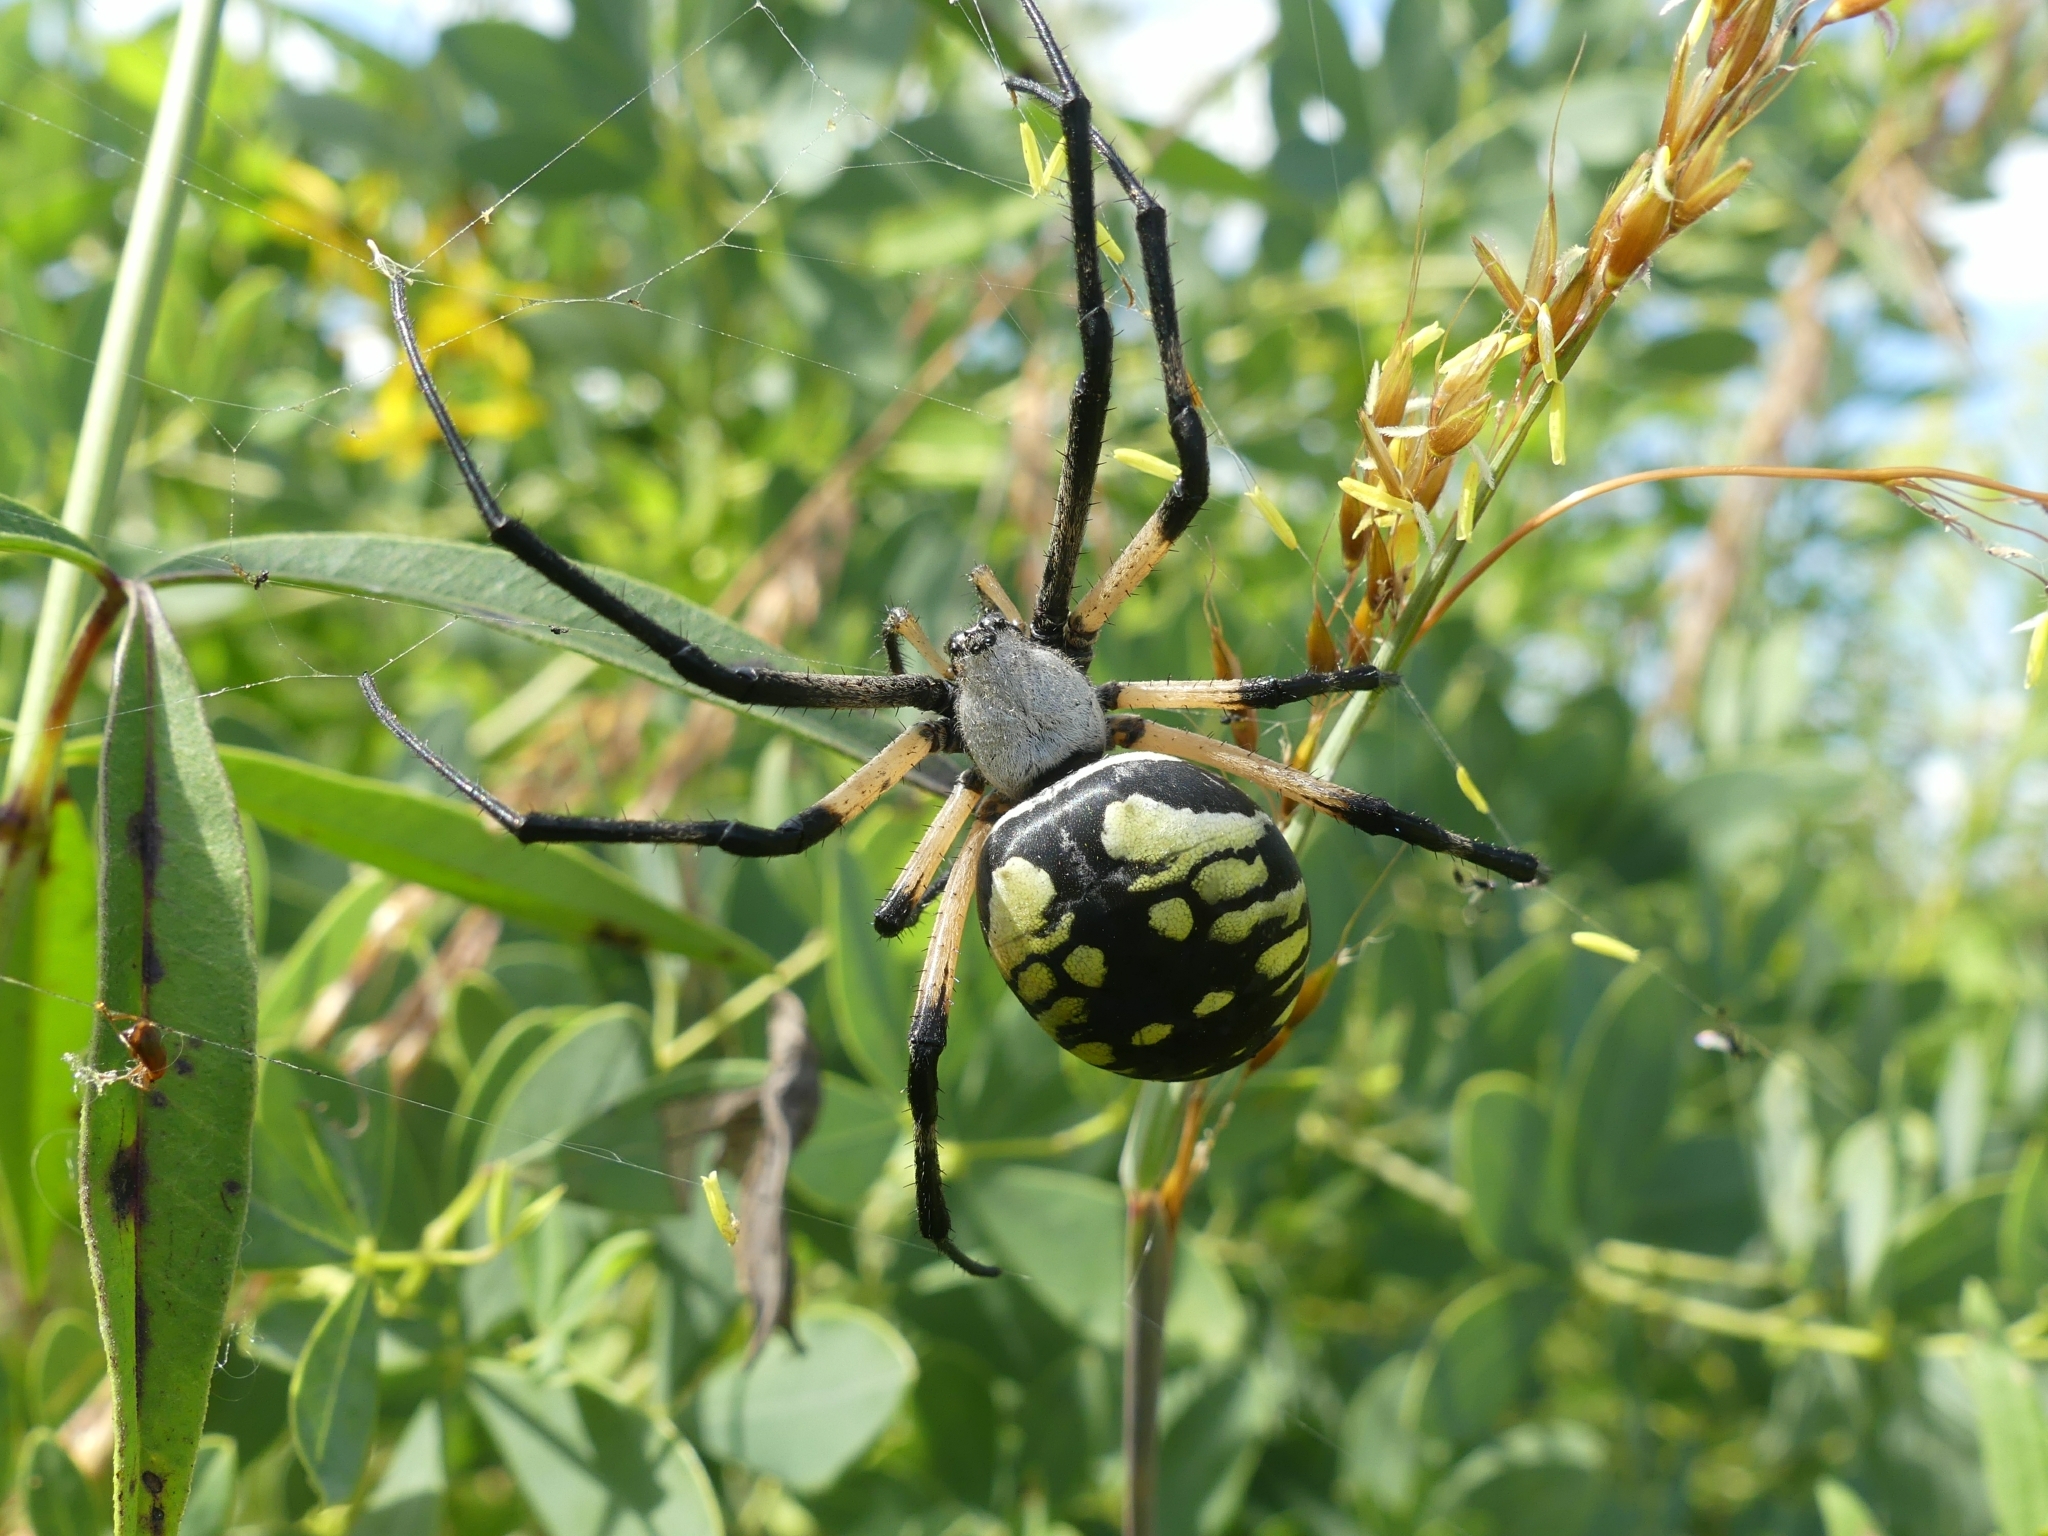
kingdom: Animalia
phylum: Arthropoda
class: Arachnida
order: Araneae
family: Araneidae
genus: Argiope
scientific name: Argiope aurantia
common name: Orb weavers
